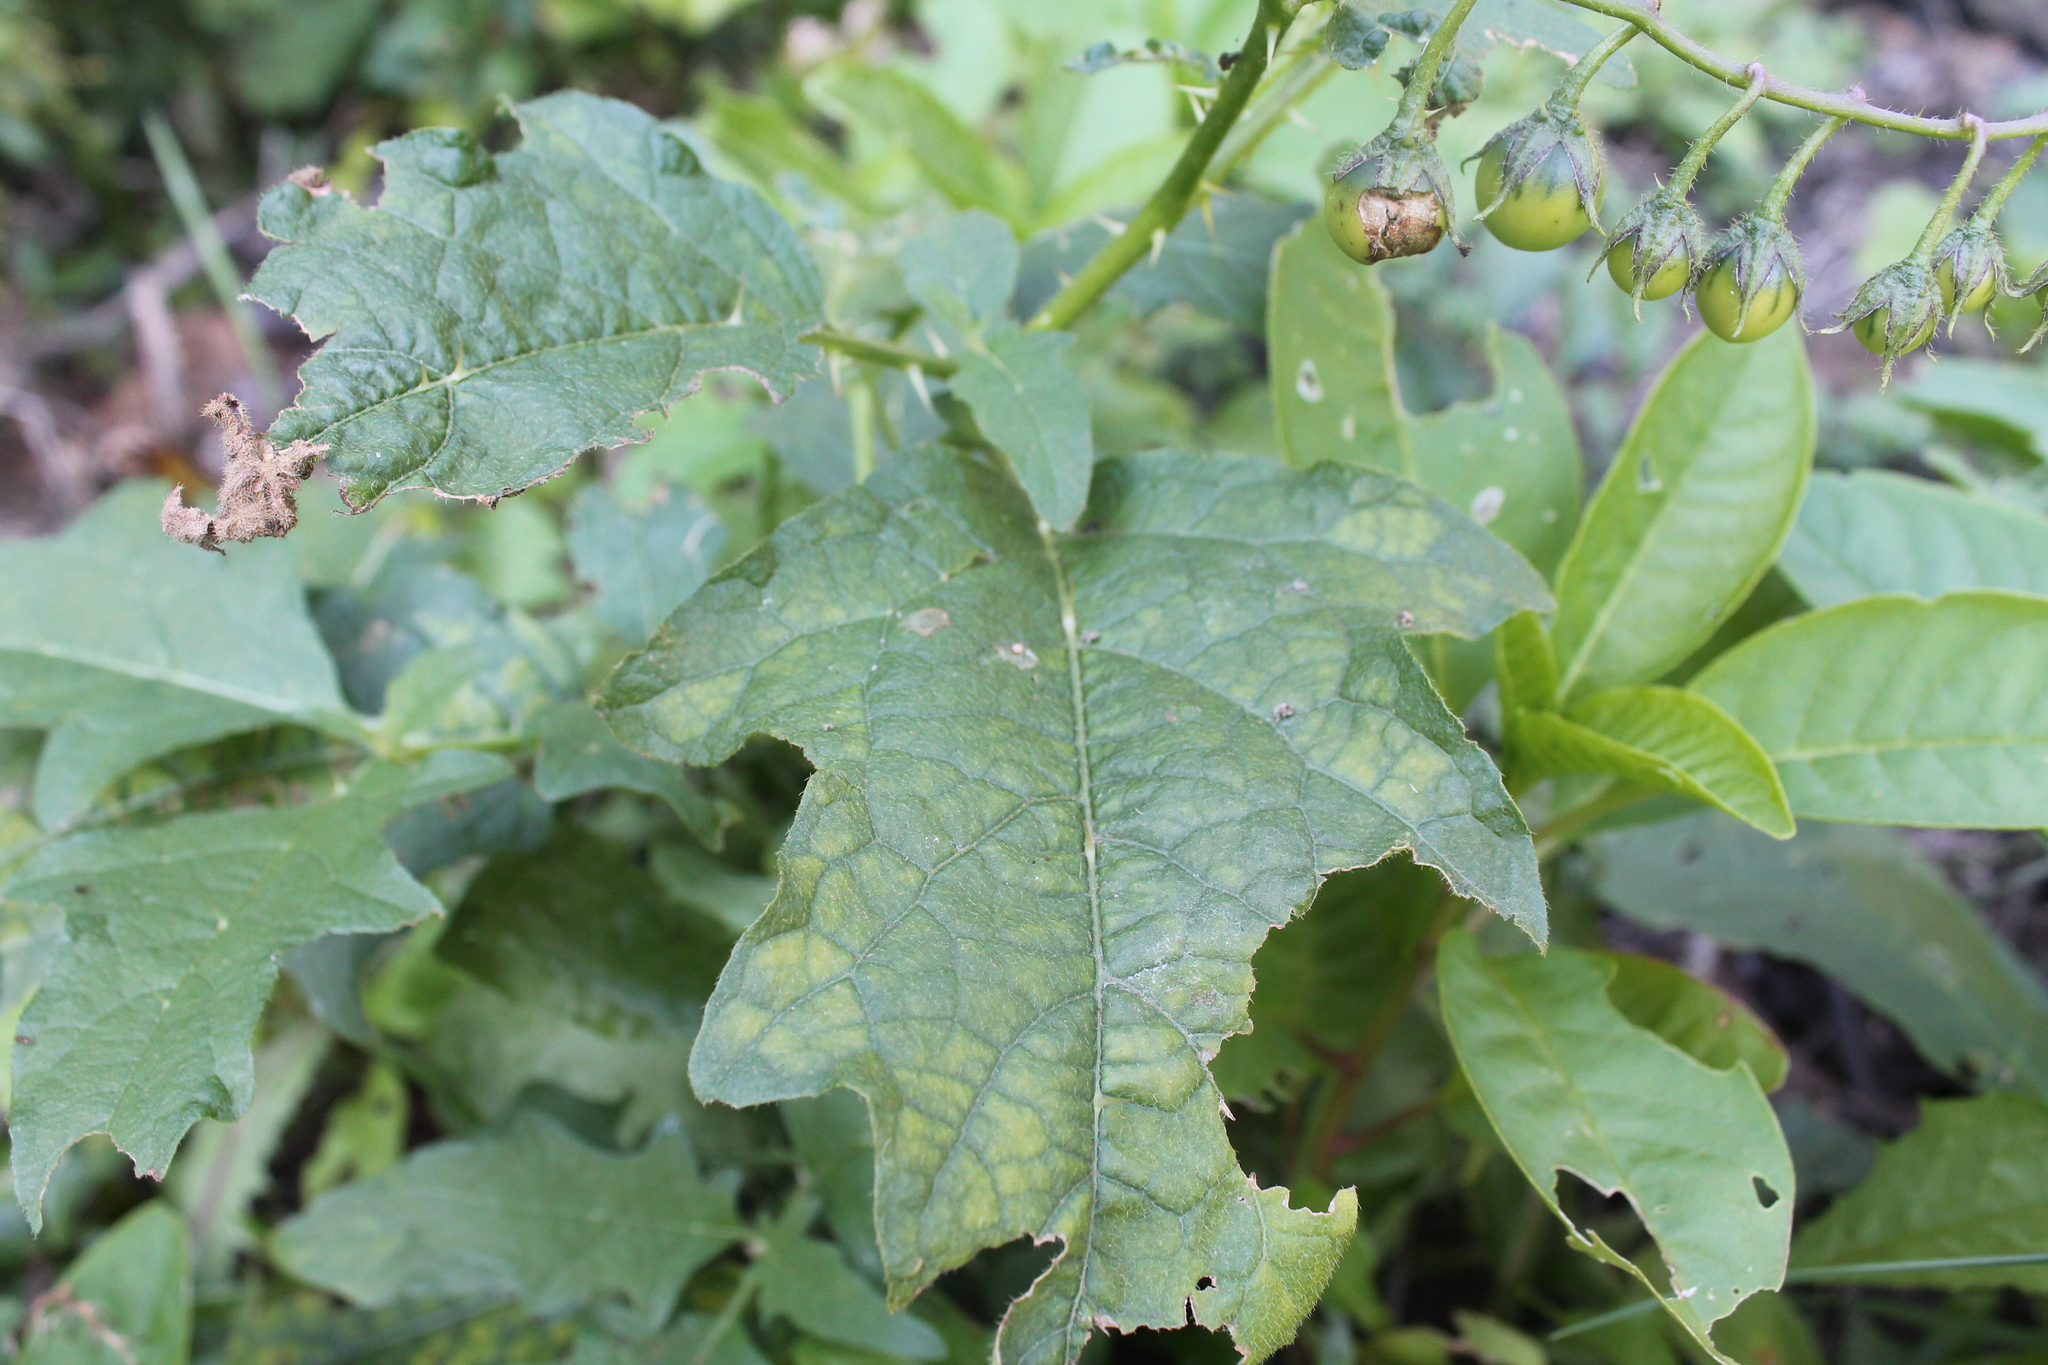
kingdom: Plantae
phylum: Tracheophyta
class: Magnoliopsida
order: Solanales
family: Solanaceae
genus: Solanum
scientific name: Solanum carolinense
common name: Horse-nettle
